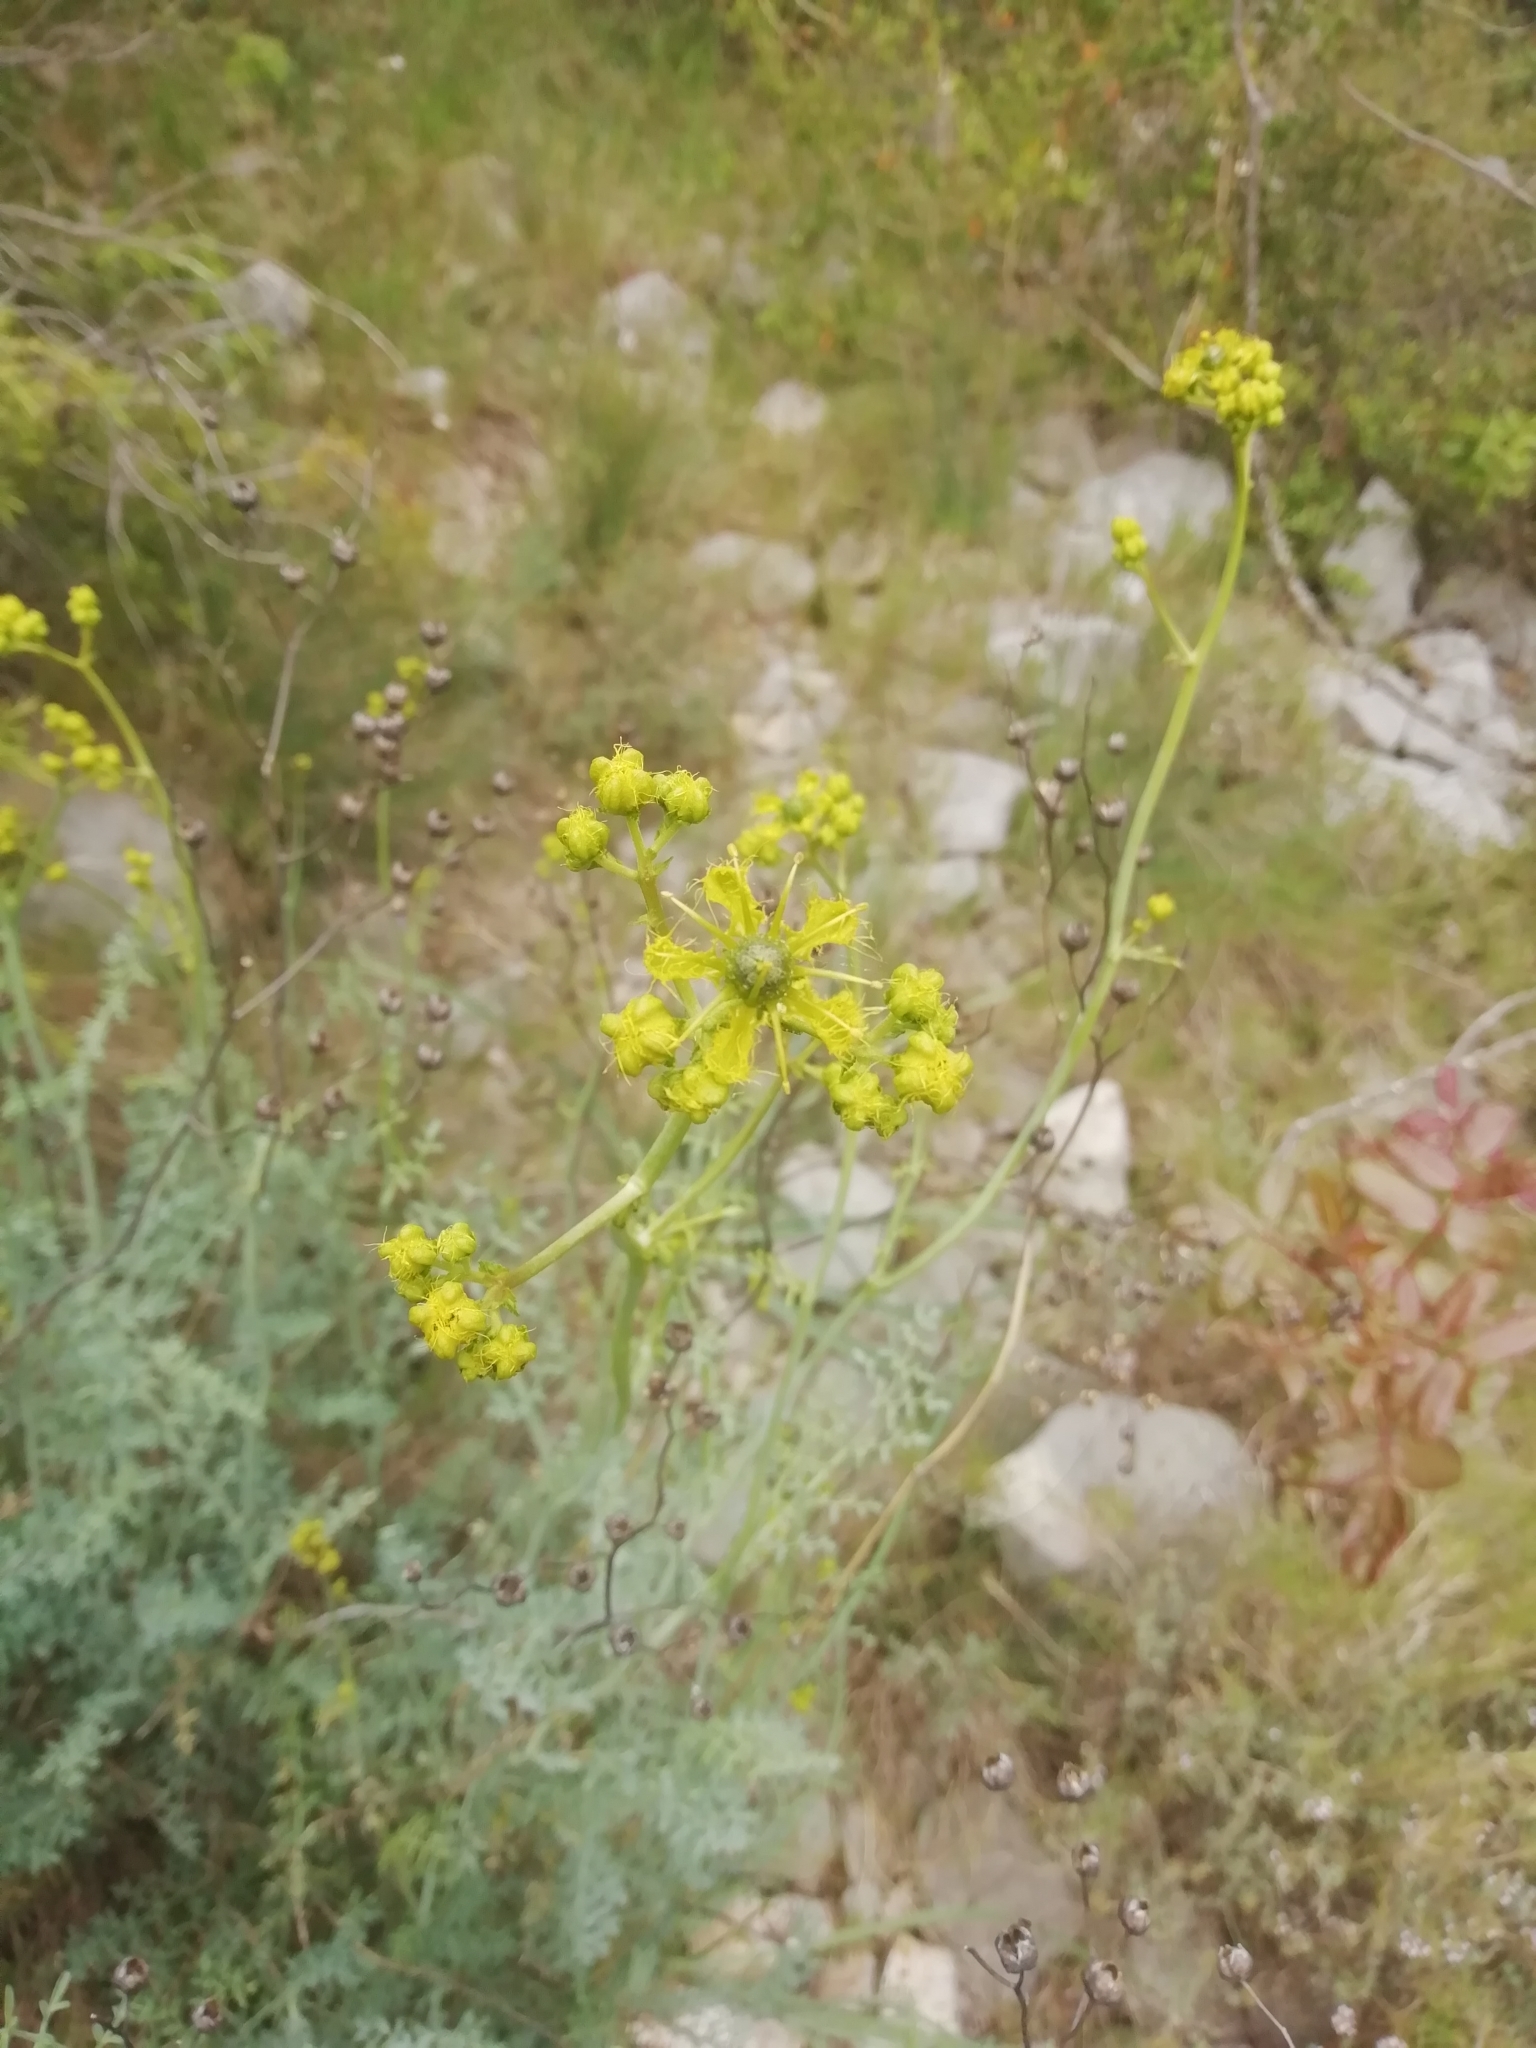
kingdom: Plantae
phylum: Tracheophyta
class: Magnoliopsida
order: Sapindales
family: Rutaceae
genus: Ruta
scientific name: Ruta angustifolia
